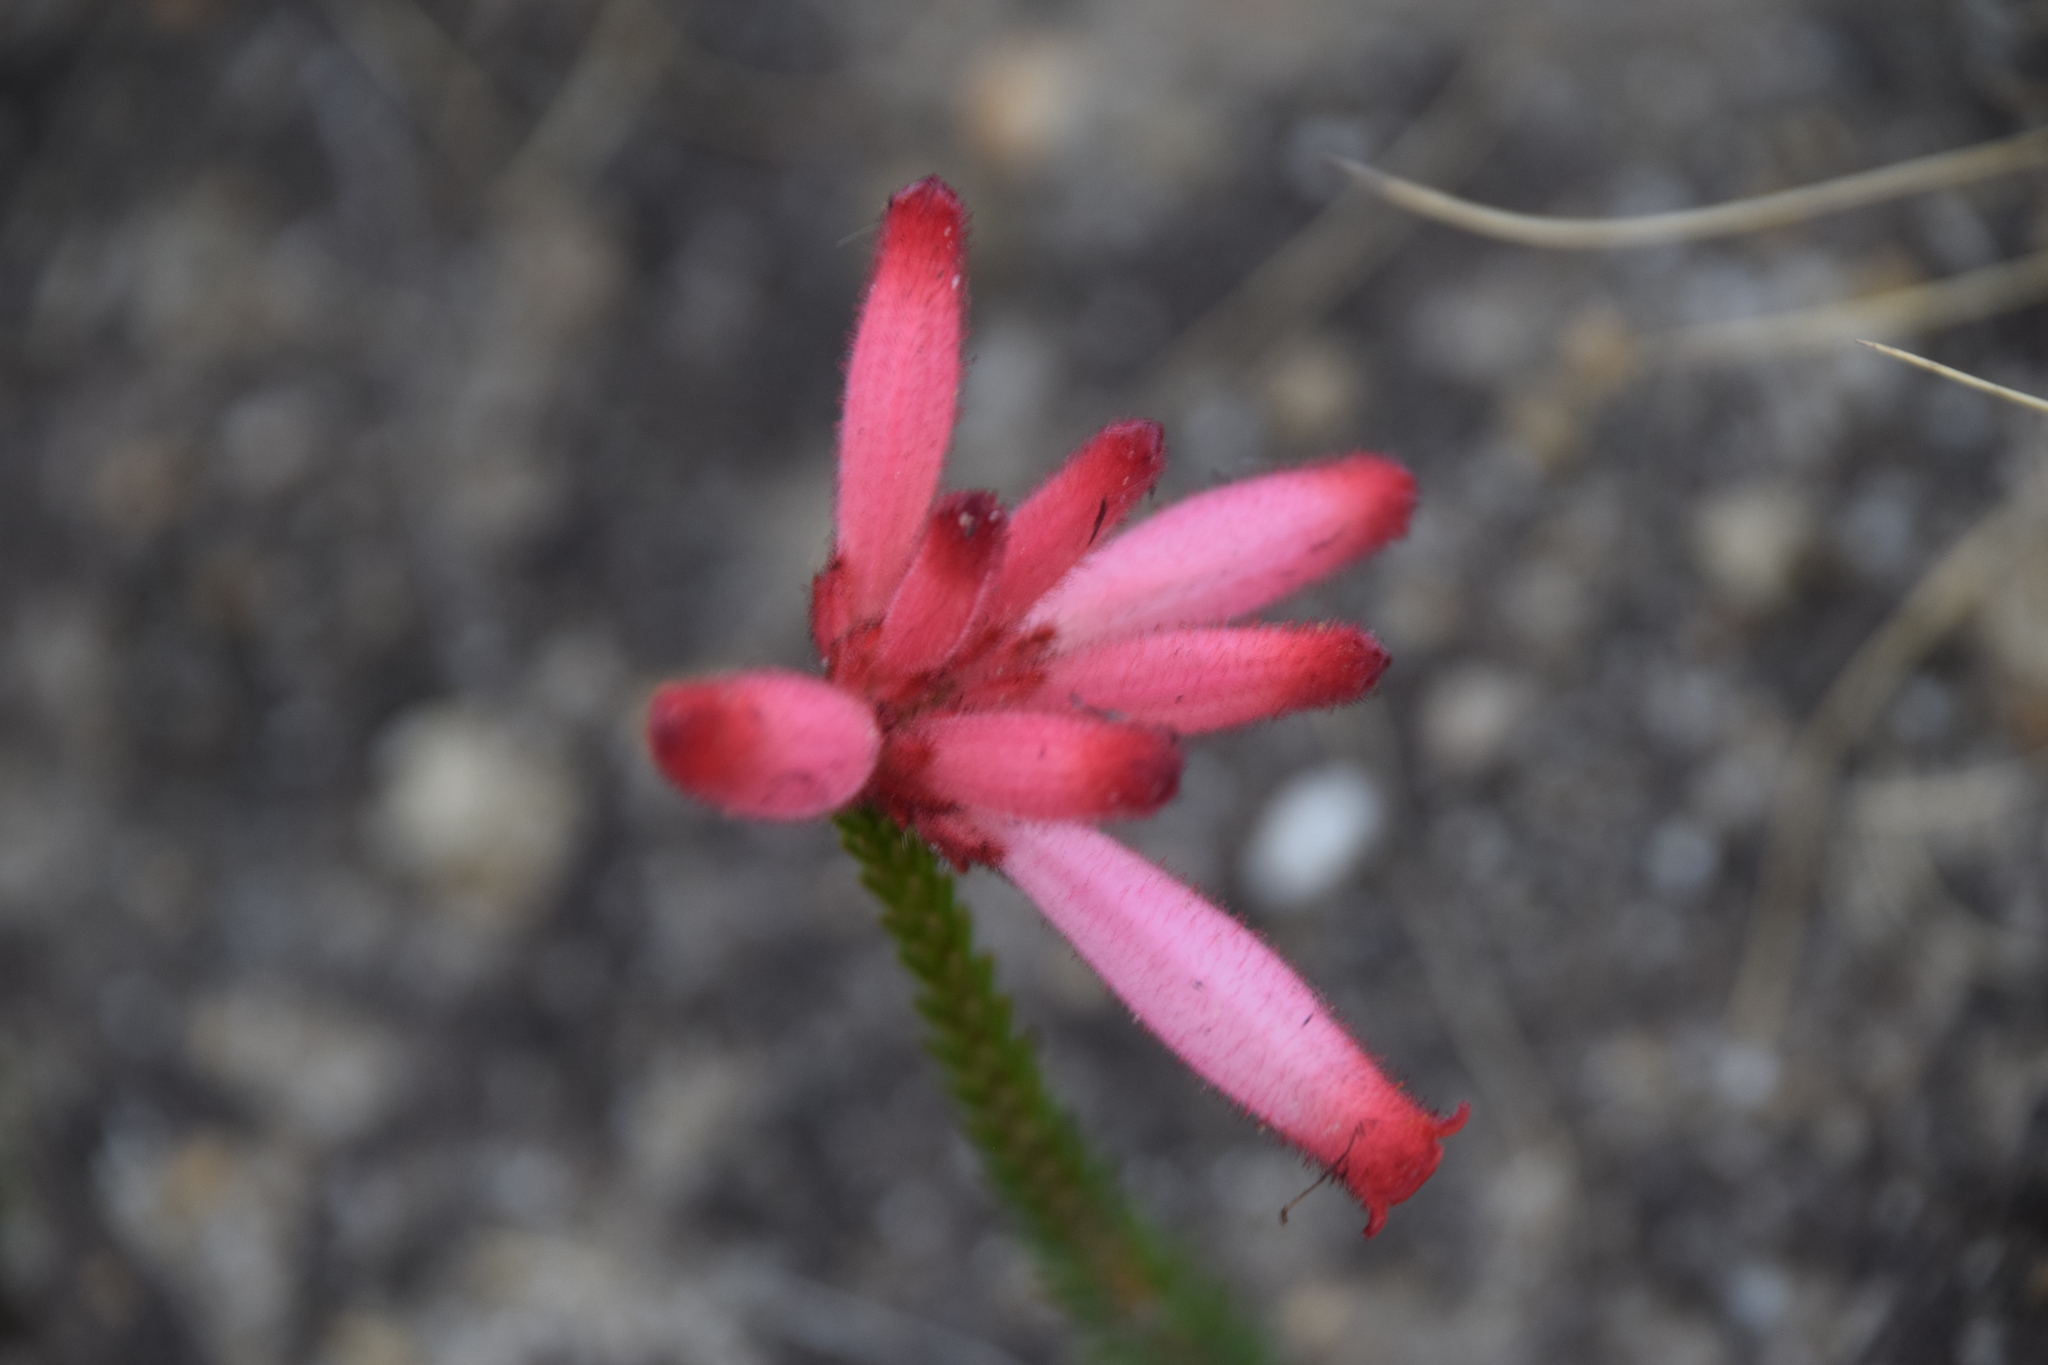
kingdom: Plantae
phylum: Tracheophyta
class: Magnoliopsida
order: Ericales
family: Ericaceae
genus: Erica
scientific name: Erica cerinthoides
